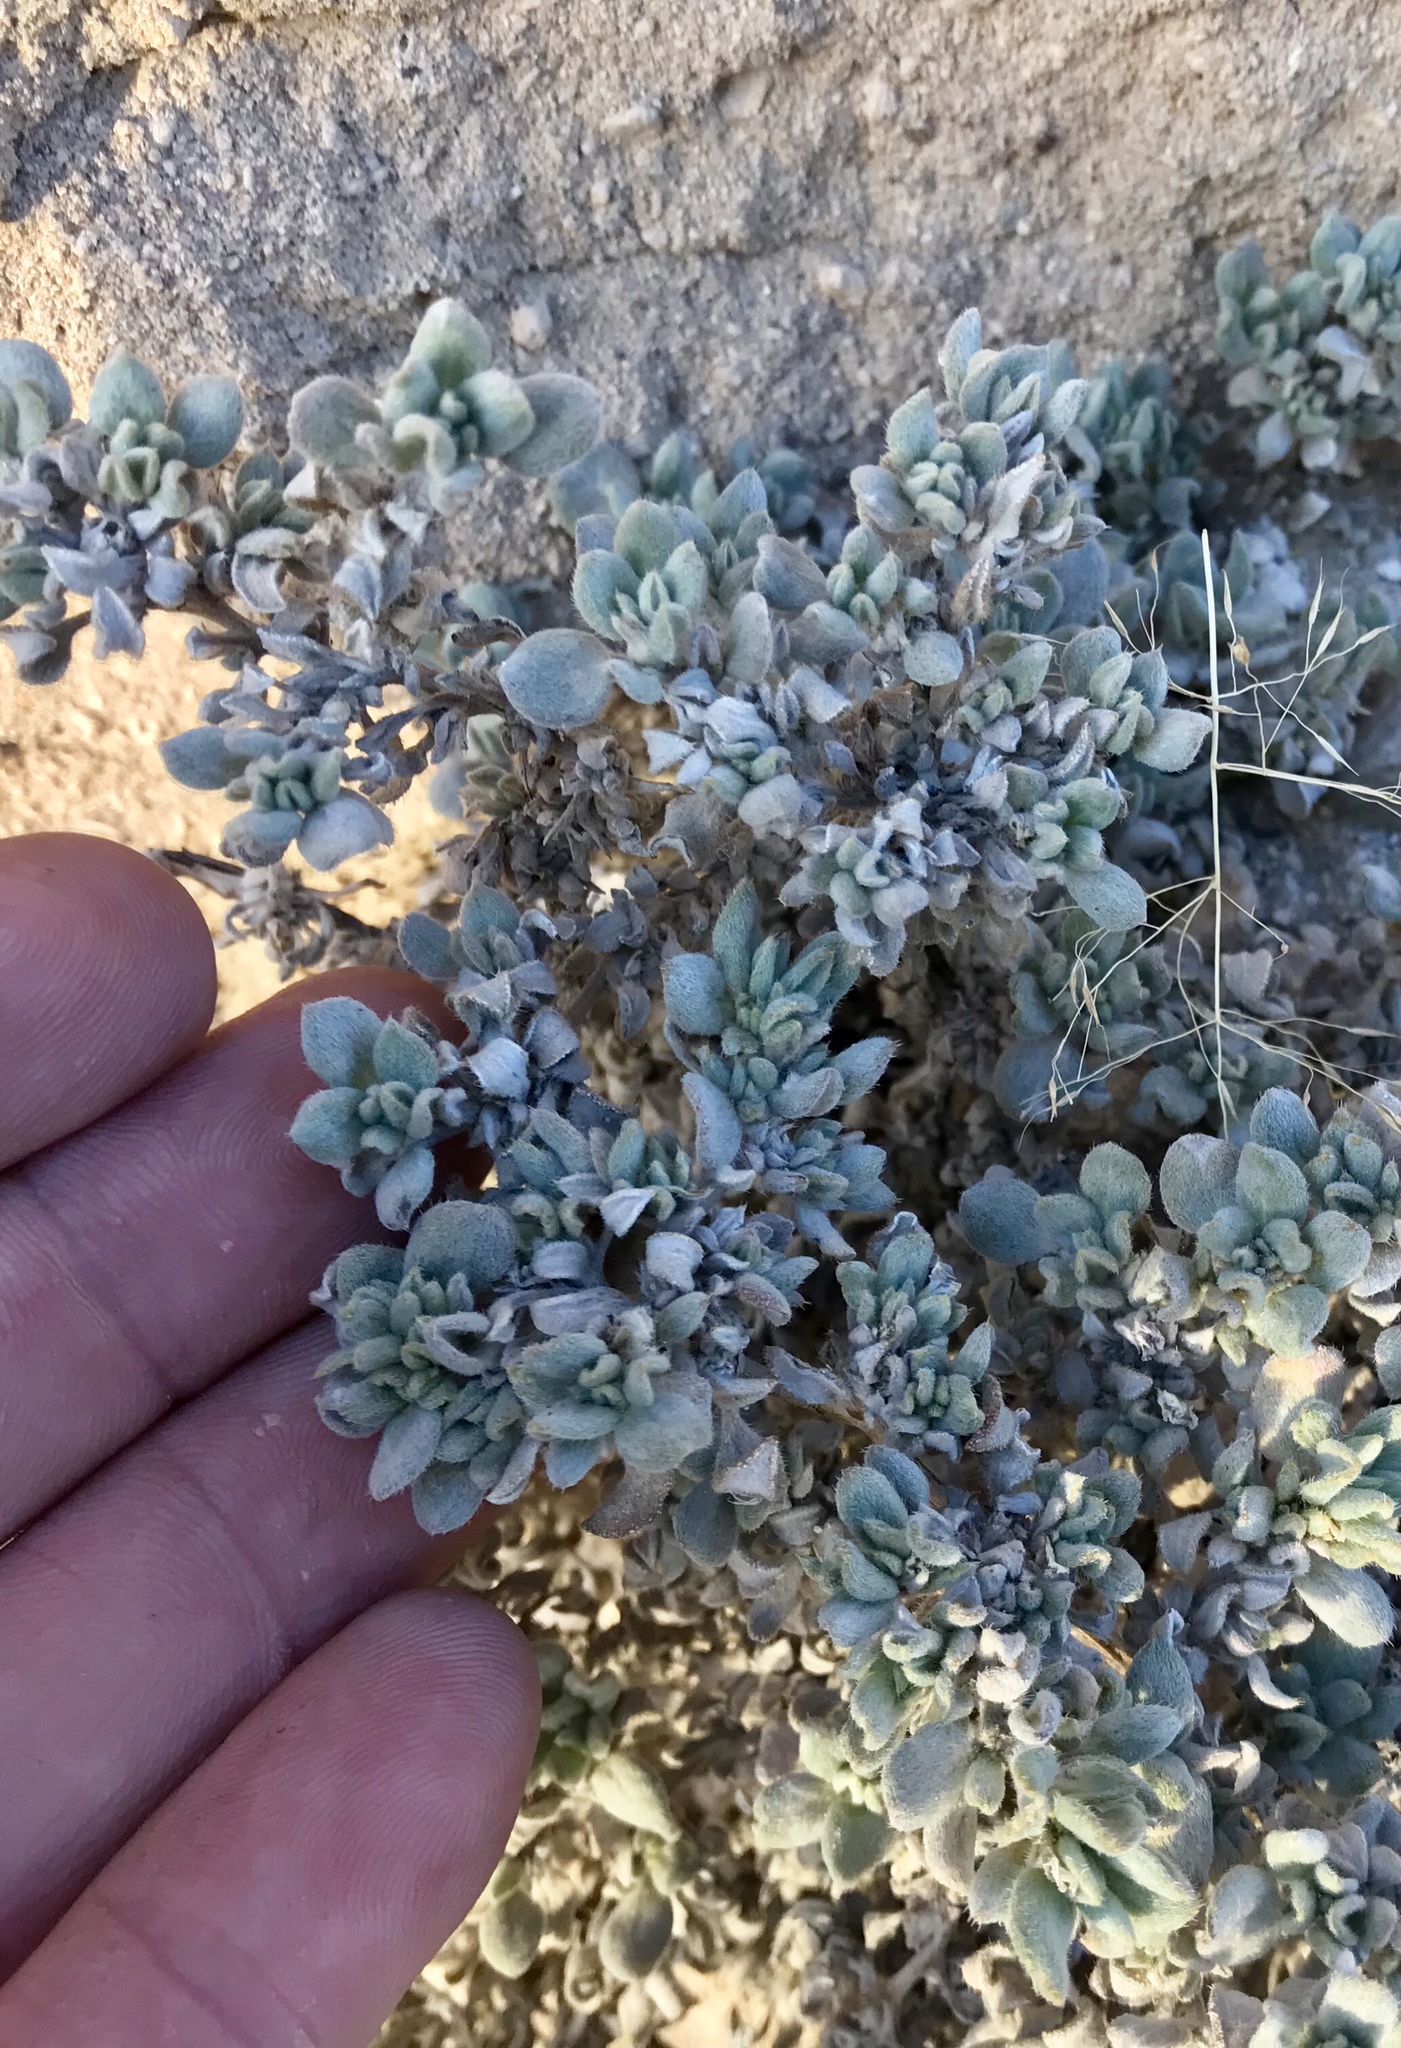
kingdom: Plantae
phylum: Tracheophyta
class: Magnoliopsida
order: Boraginales
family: Ehretiaceae
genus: Tiquilia
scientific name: Tiquilia canescens
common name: Hairy tiquilia
